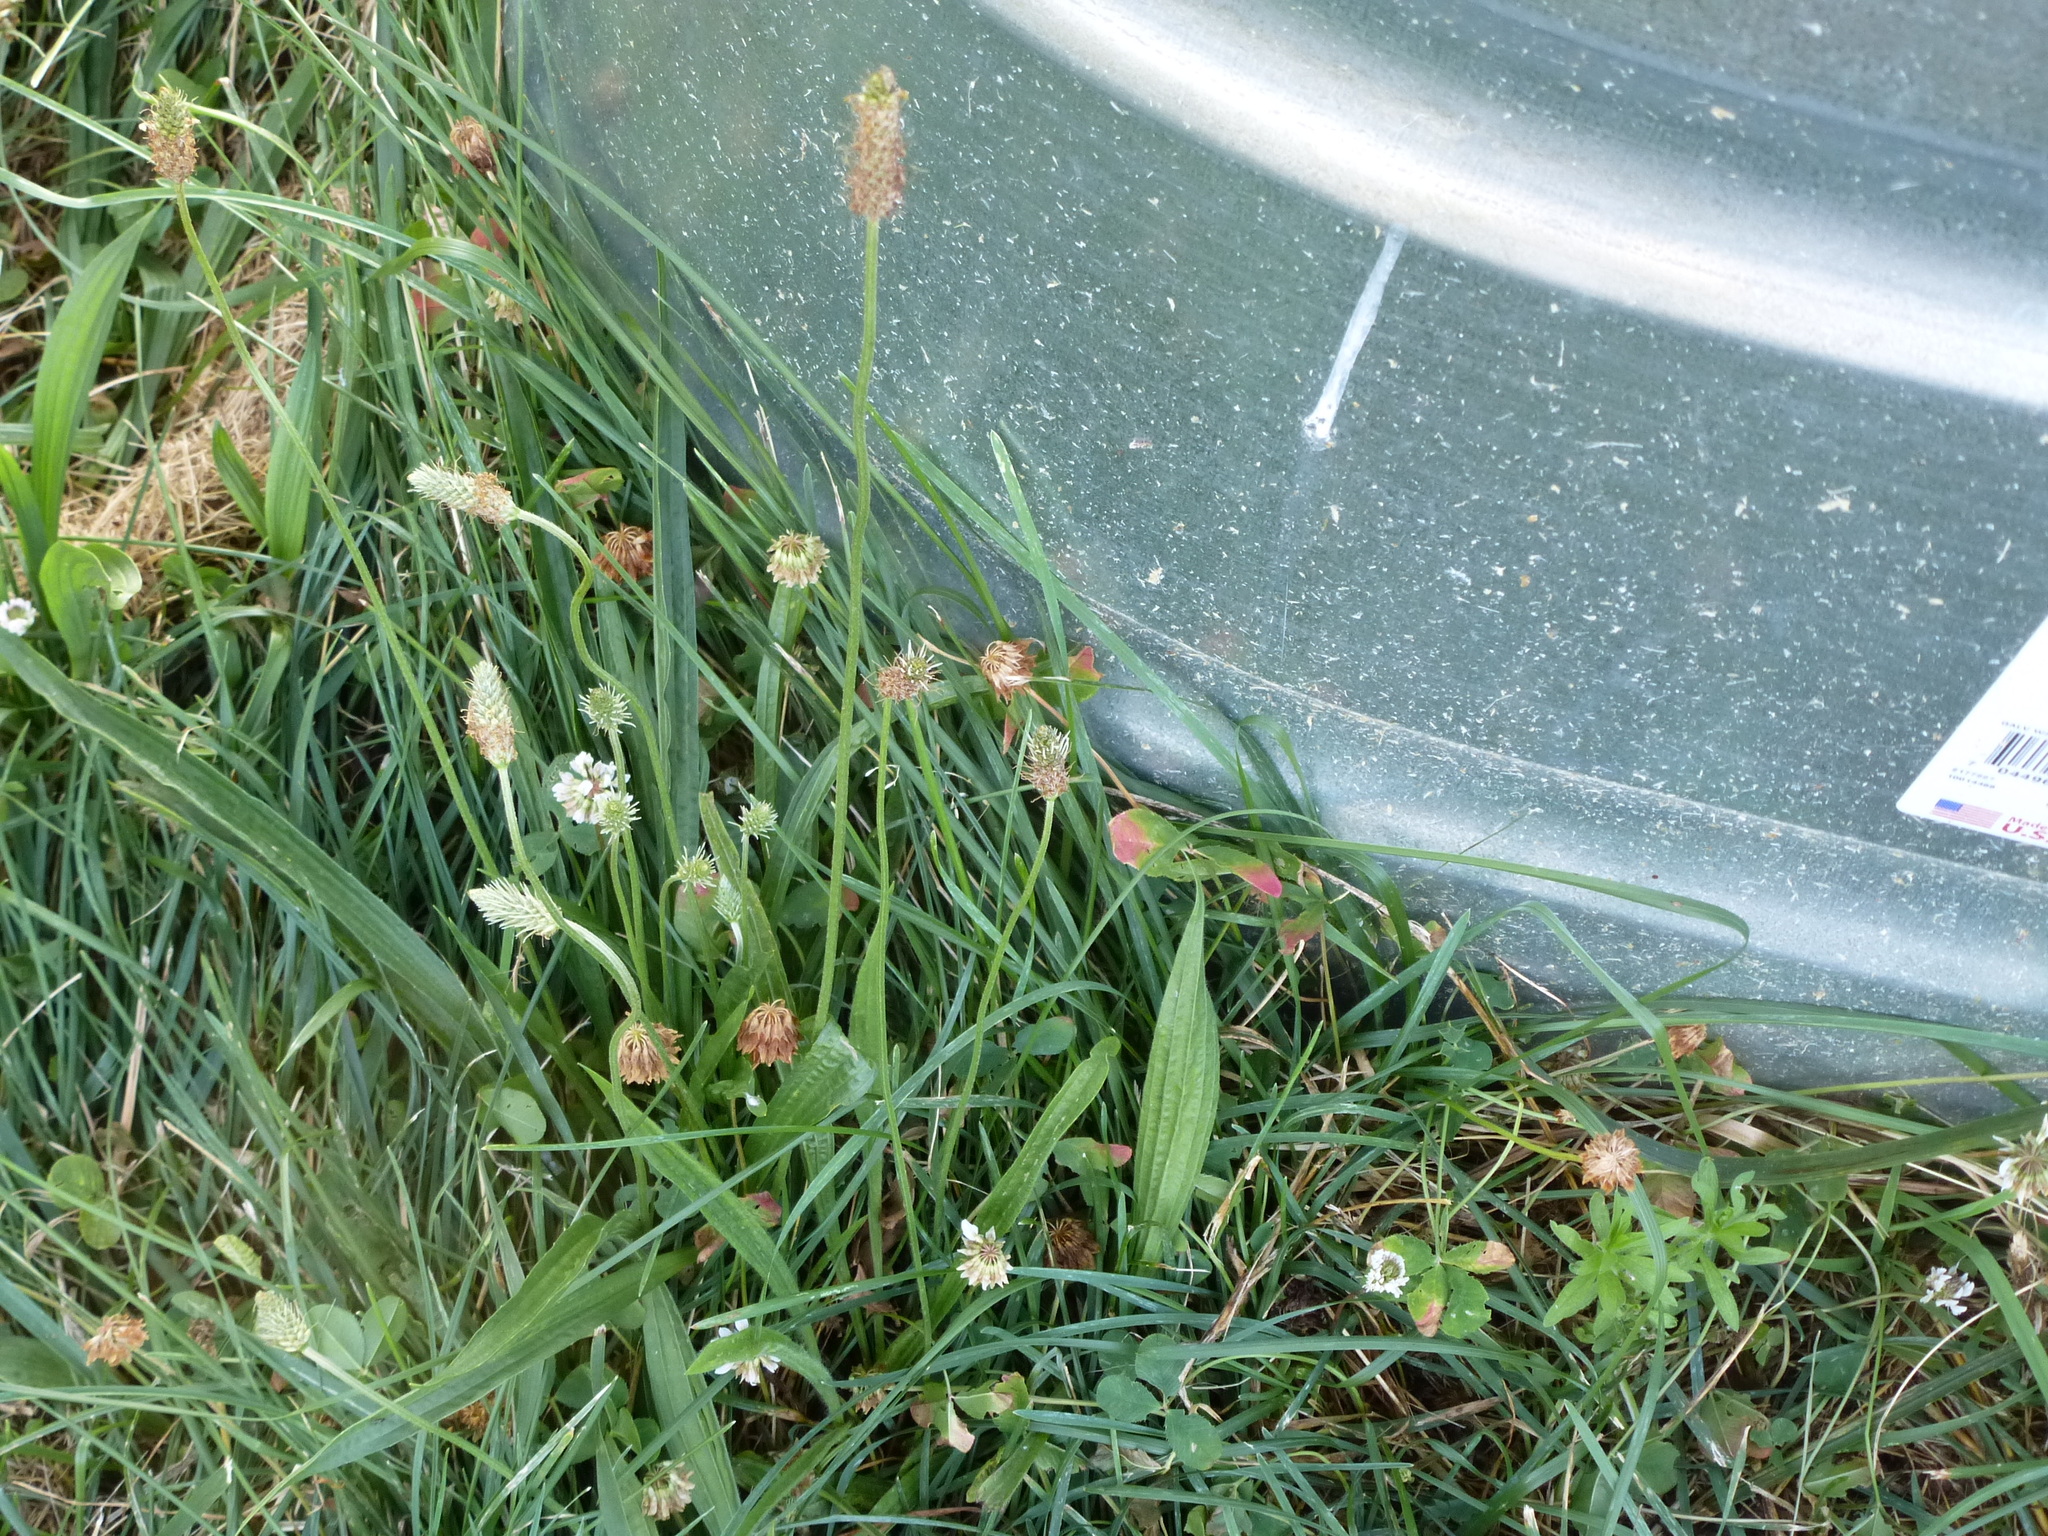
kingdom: Plantae
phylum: Tracheophyta
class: Magnoliopsida
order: Lamiales
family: Plantaginaceae
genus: Plantago
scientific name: Plantago lanceolata
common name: Ribwort plantain
